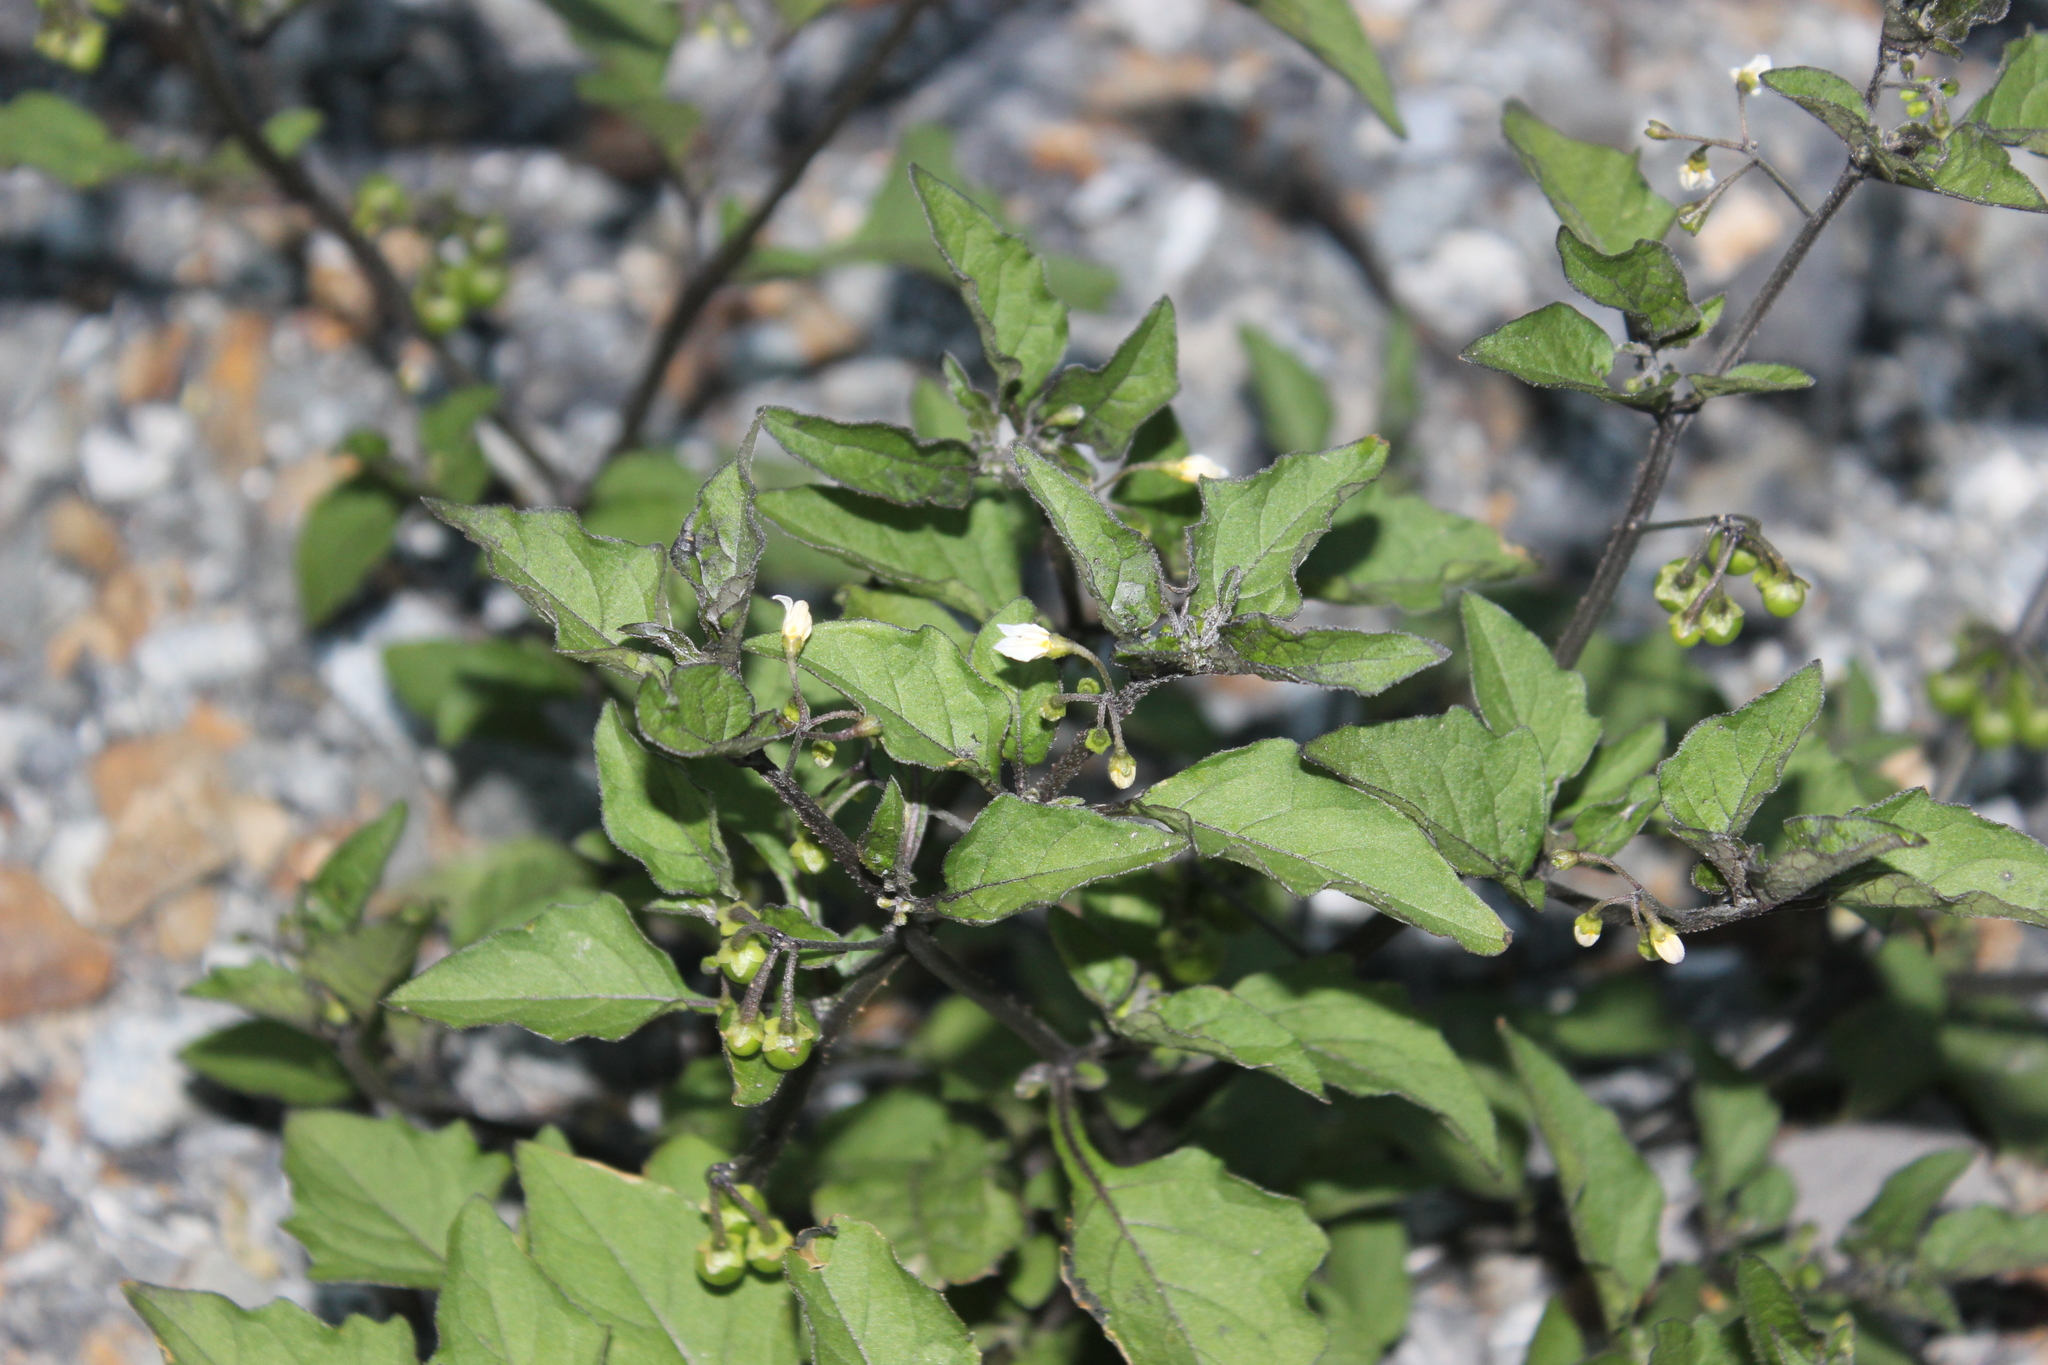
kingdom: Plantae
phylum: Tracheophyta
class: Magnoliopsida
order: Solanales
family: Solanaceae
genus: Solanum
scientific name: Solanum nigrum
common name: Black nightshade
